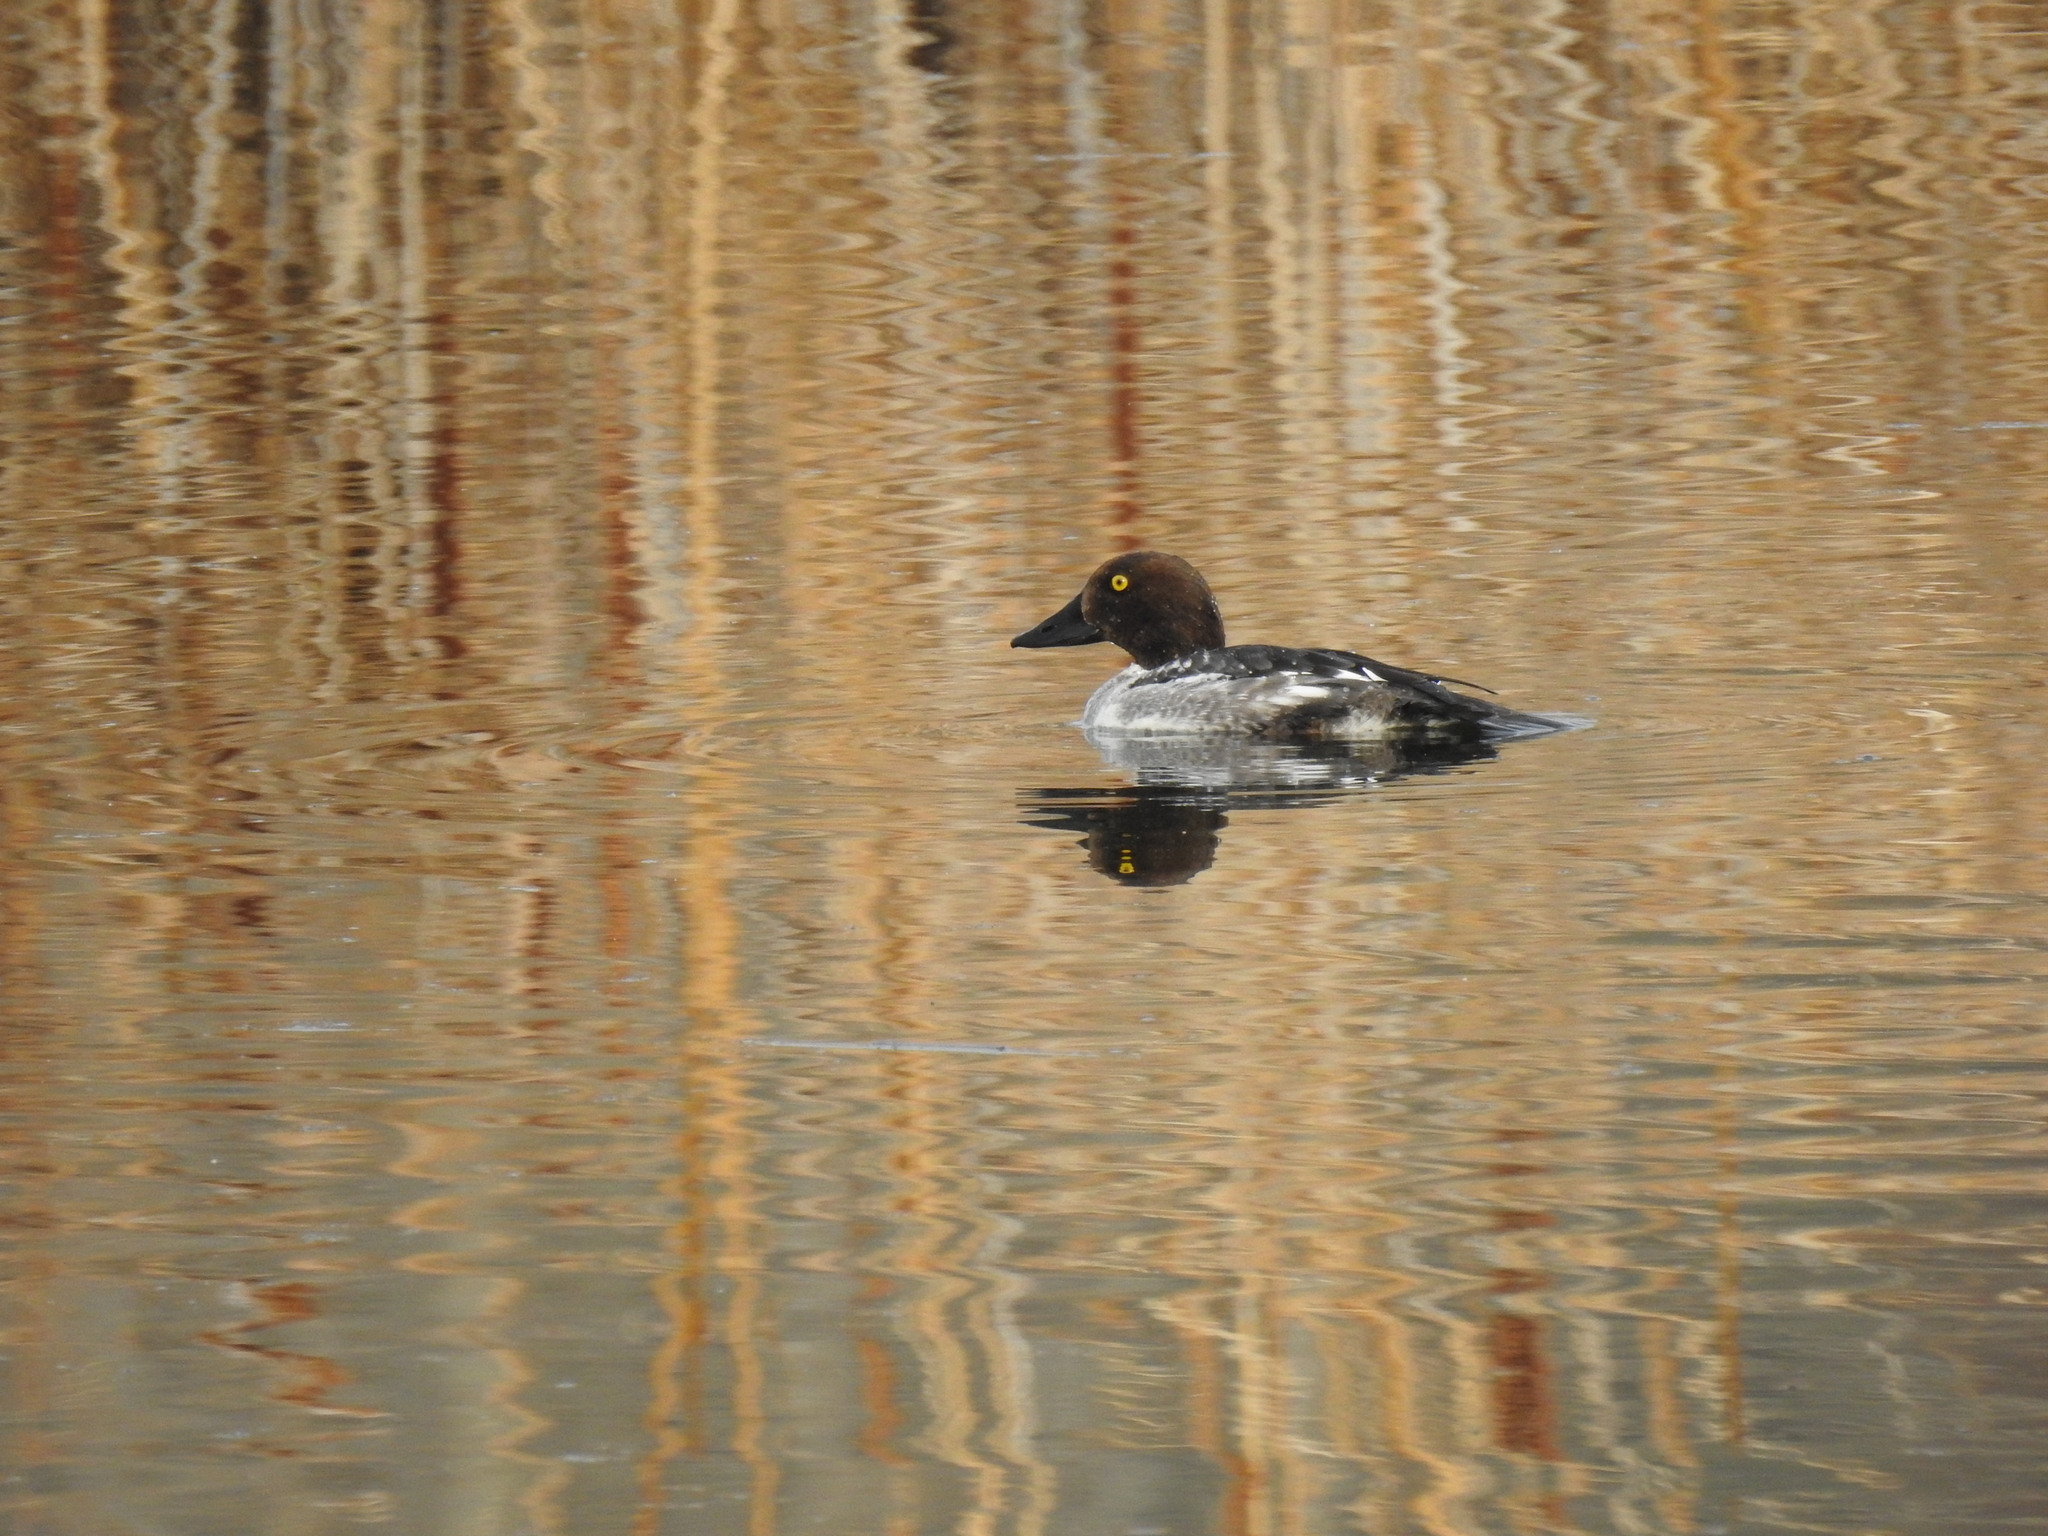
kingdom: Animalia
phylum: Chordata
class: Aves
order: Anseriformes
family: Anatidae
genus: Bucephala
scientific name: Bucephala clangula
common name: Common goldeneye
